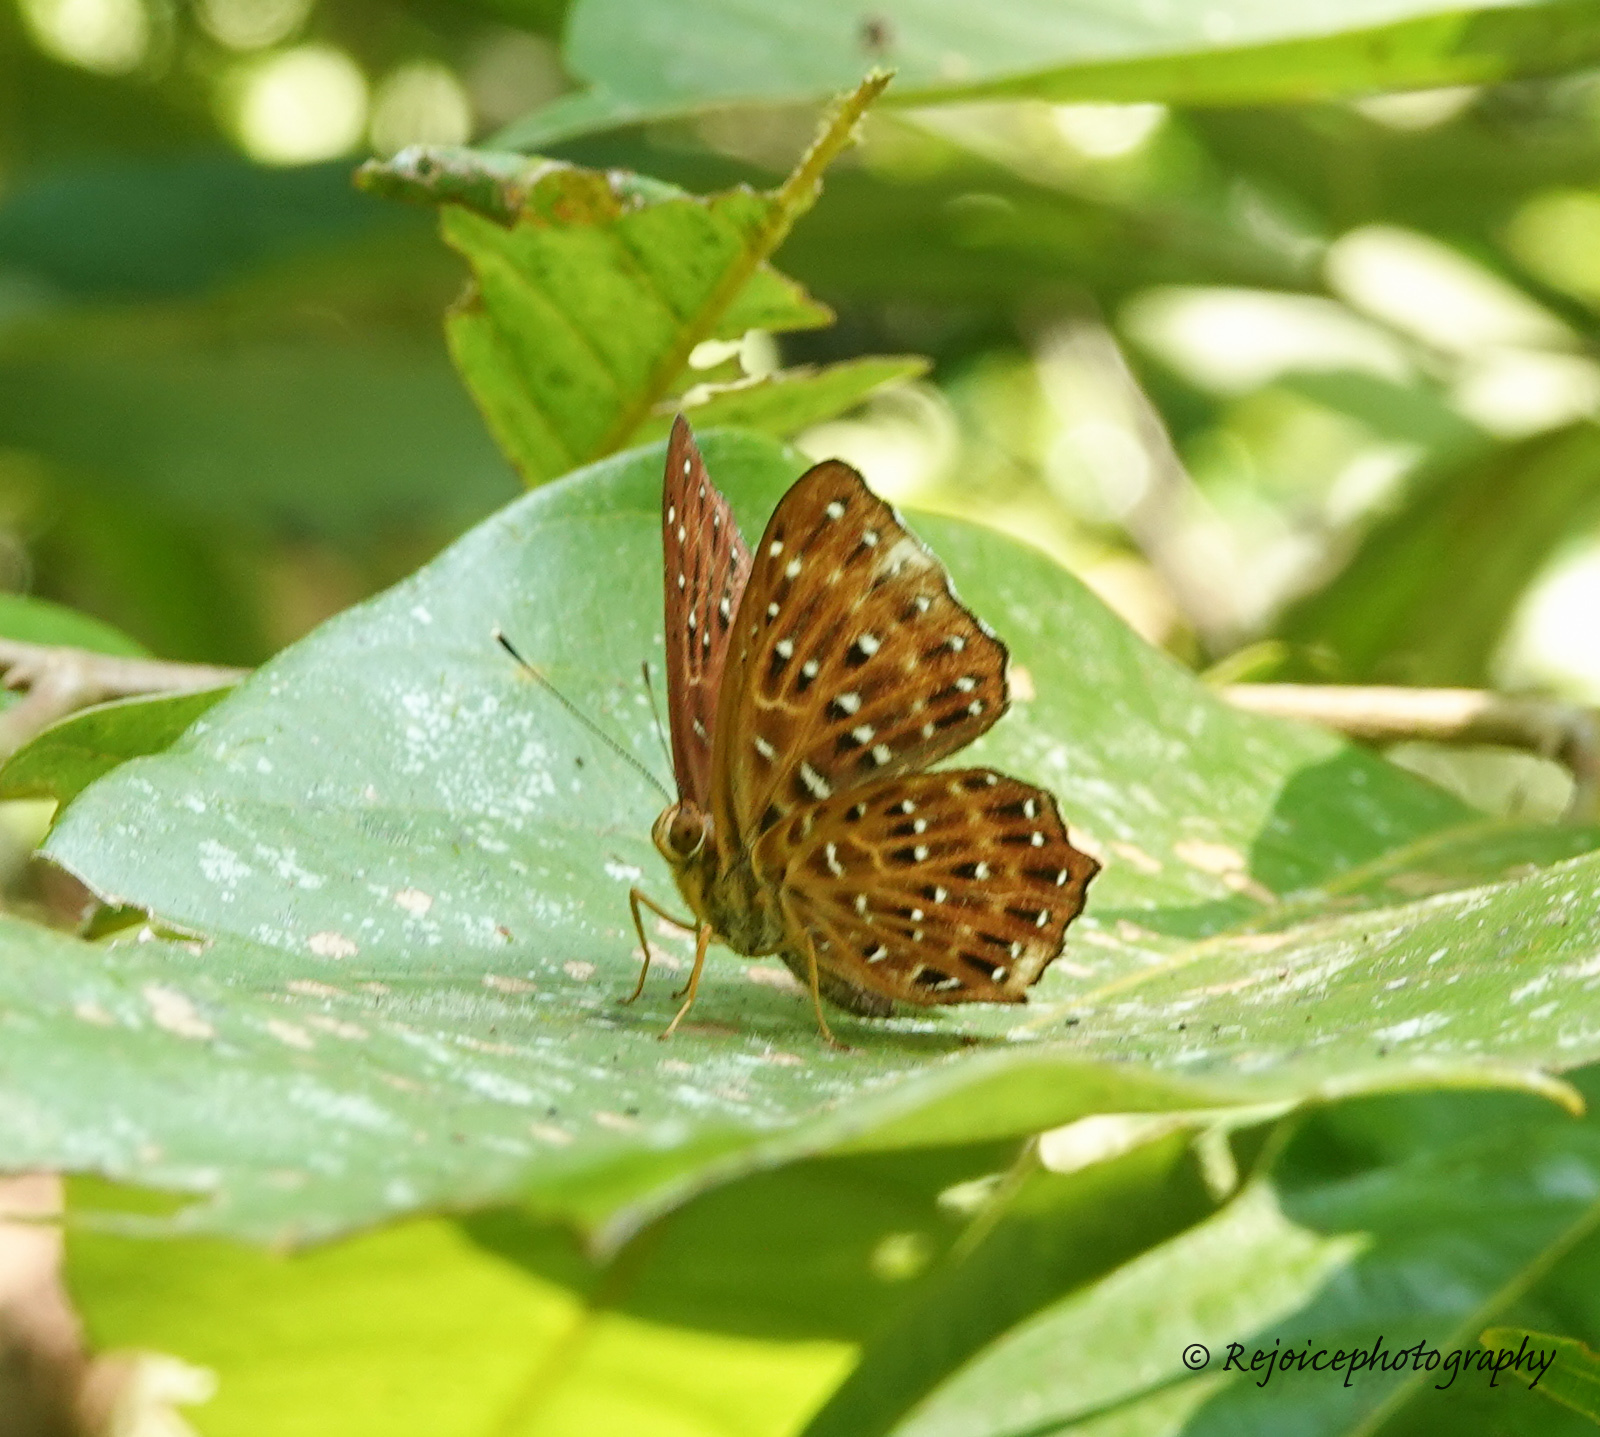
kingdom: Animalia
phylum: Arthropoda
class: Insecta
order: Lepidoptera
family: Riodinidae
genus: Zemeros
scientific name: Zemeros flegyas
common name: Punchinello
